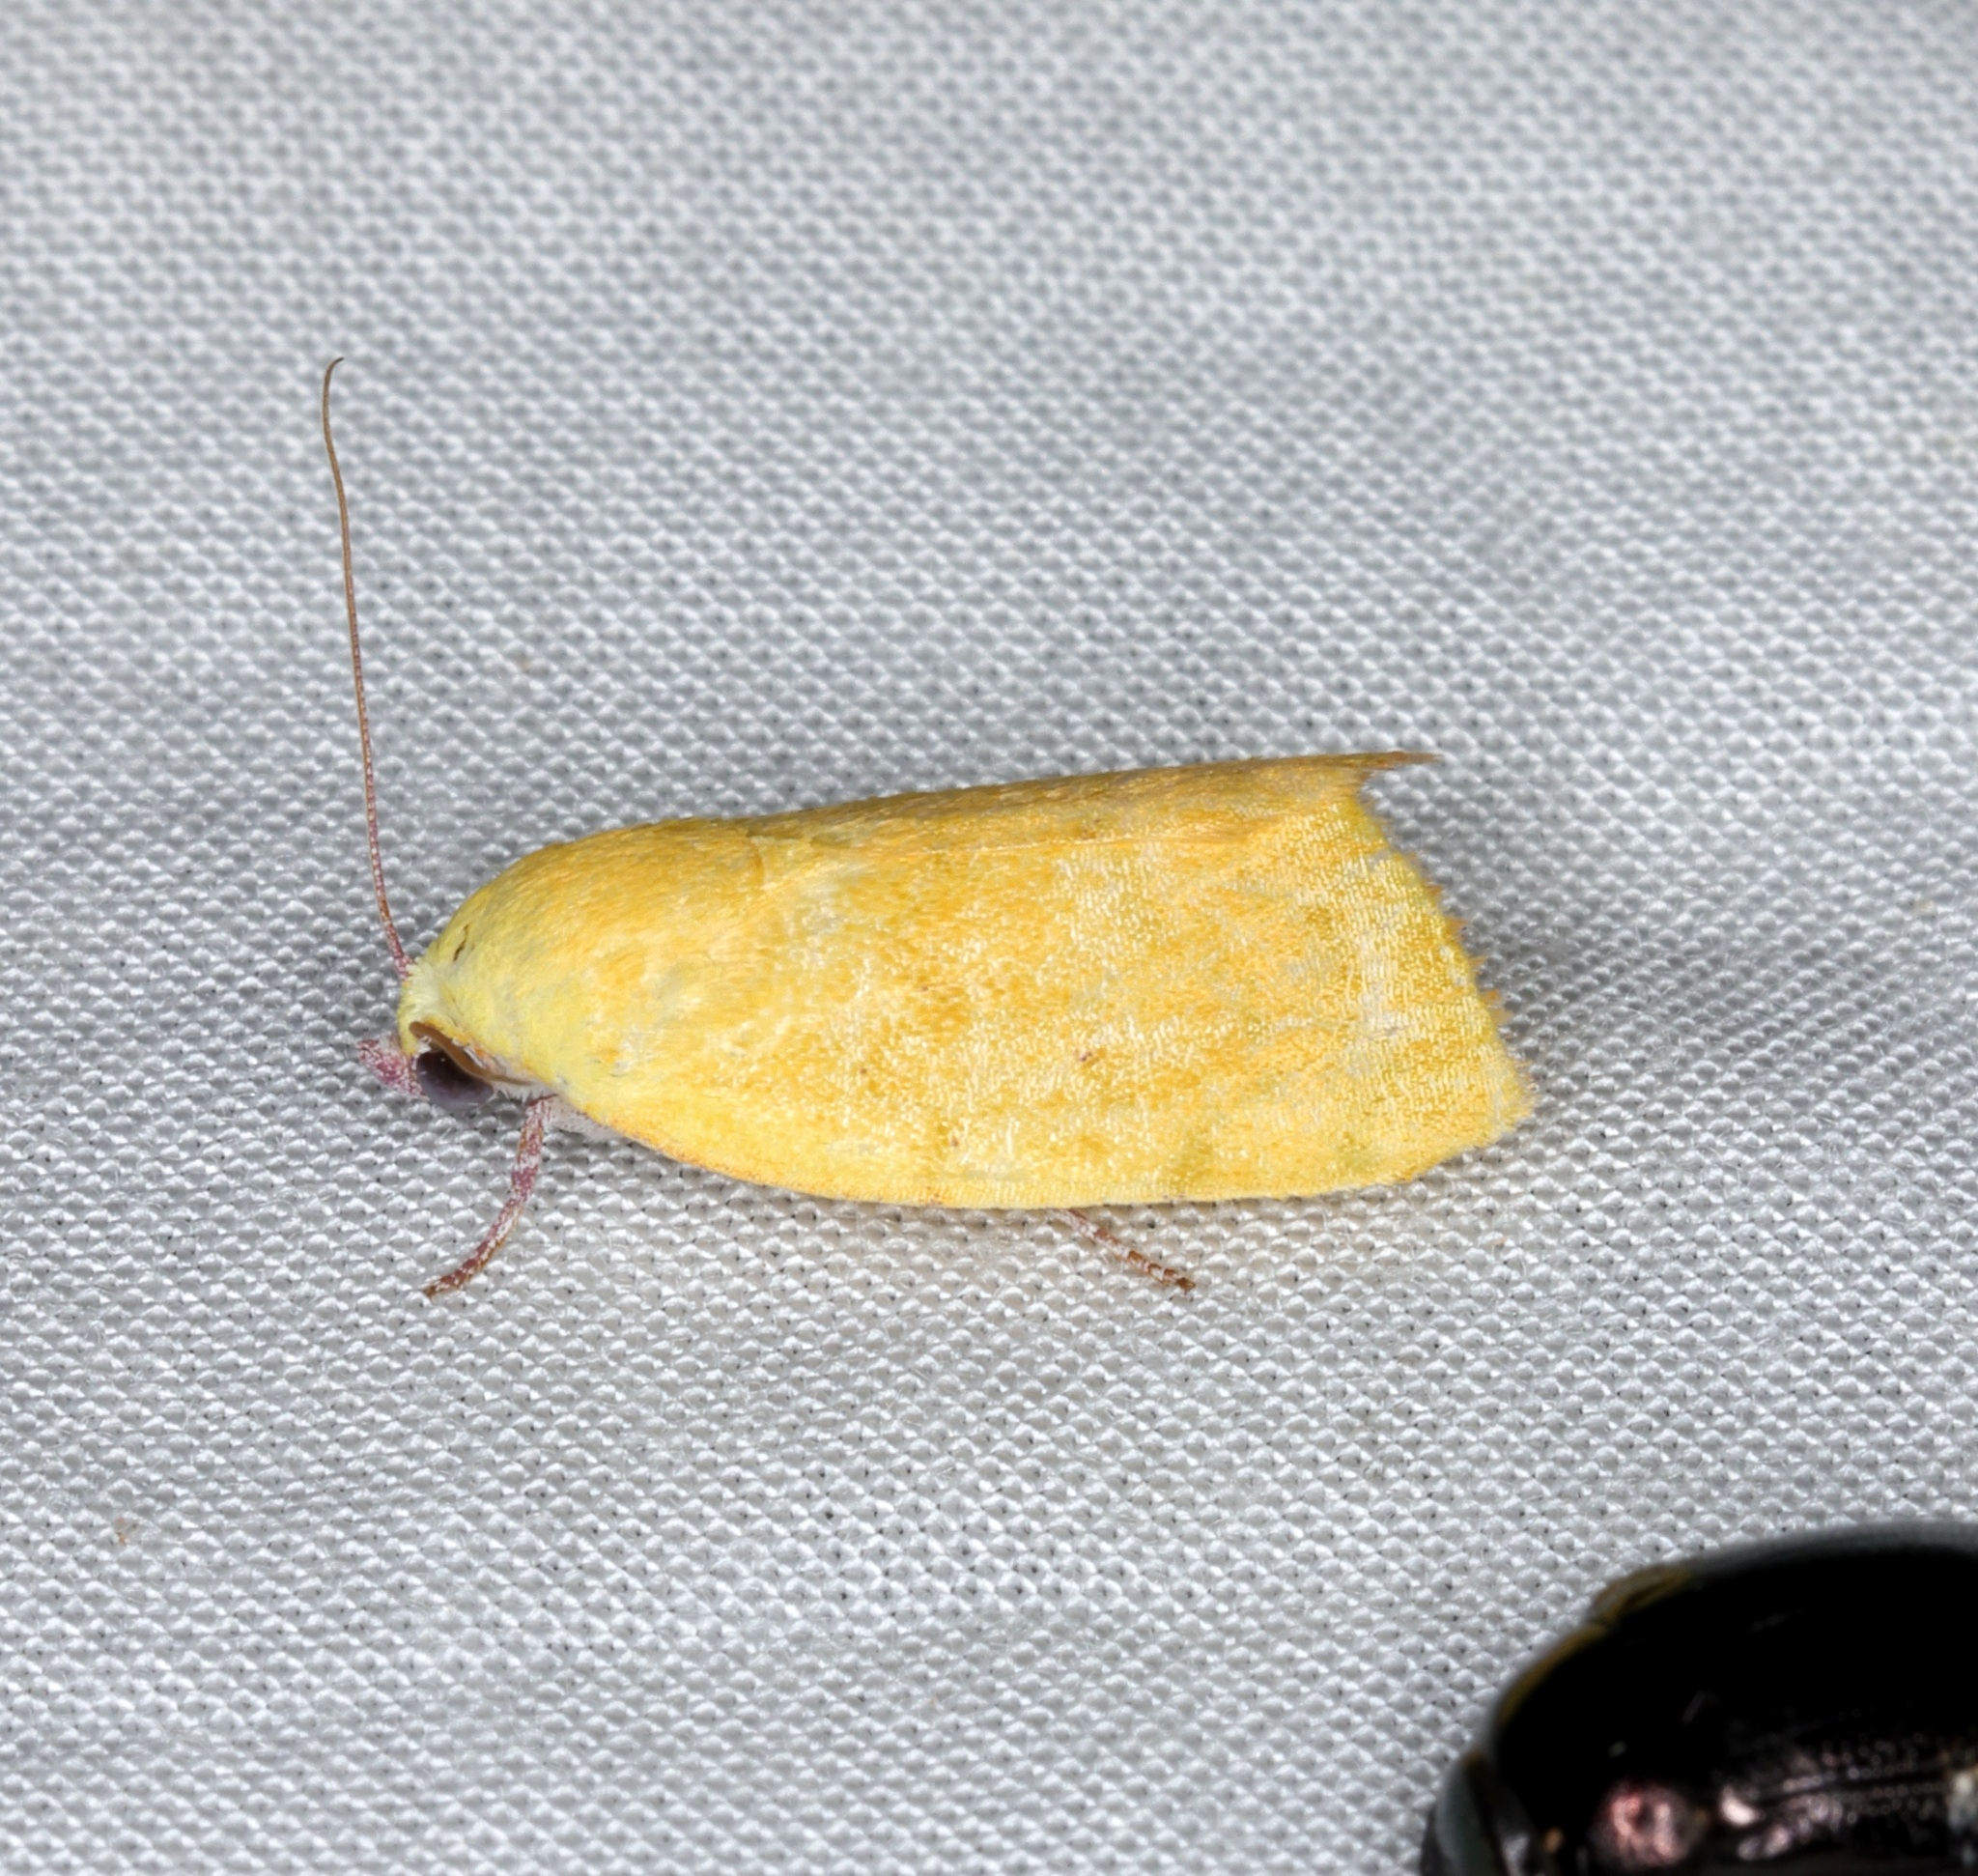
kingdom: Animalia
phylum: Arthropoda
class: Insecta
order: Lepidoptera
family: Nolidae
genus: Earias
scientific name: Earias luteolaria
